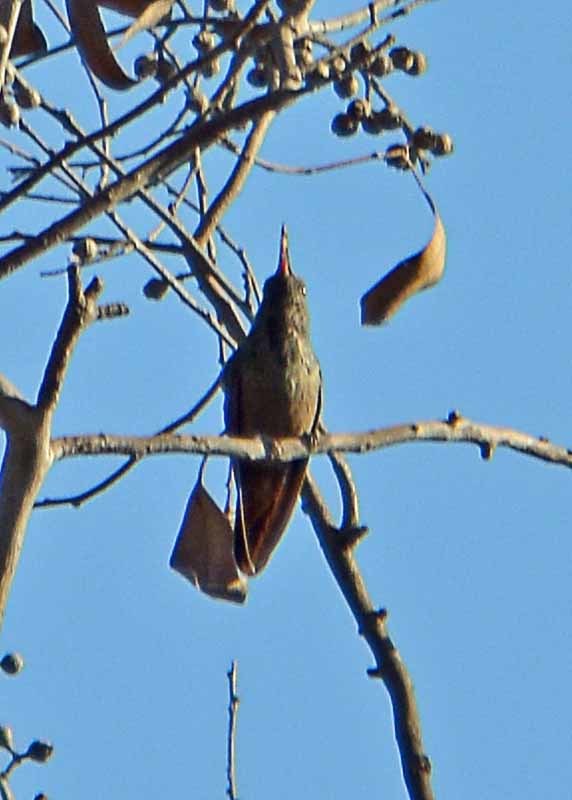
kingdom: Animalia
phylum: Chordata
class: Aves
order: Apodiformes
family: Trochilidae
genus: Saucerottia
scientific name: Saucerottia beryllina
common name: Berylline hummingbird
